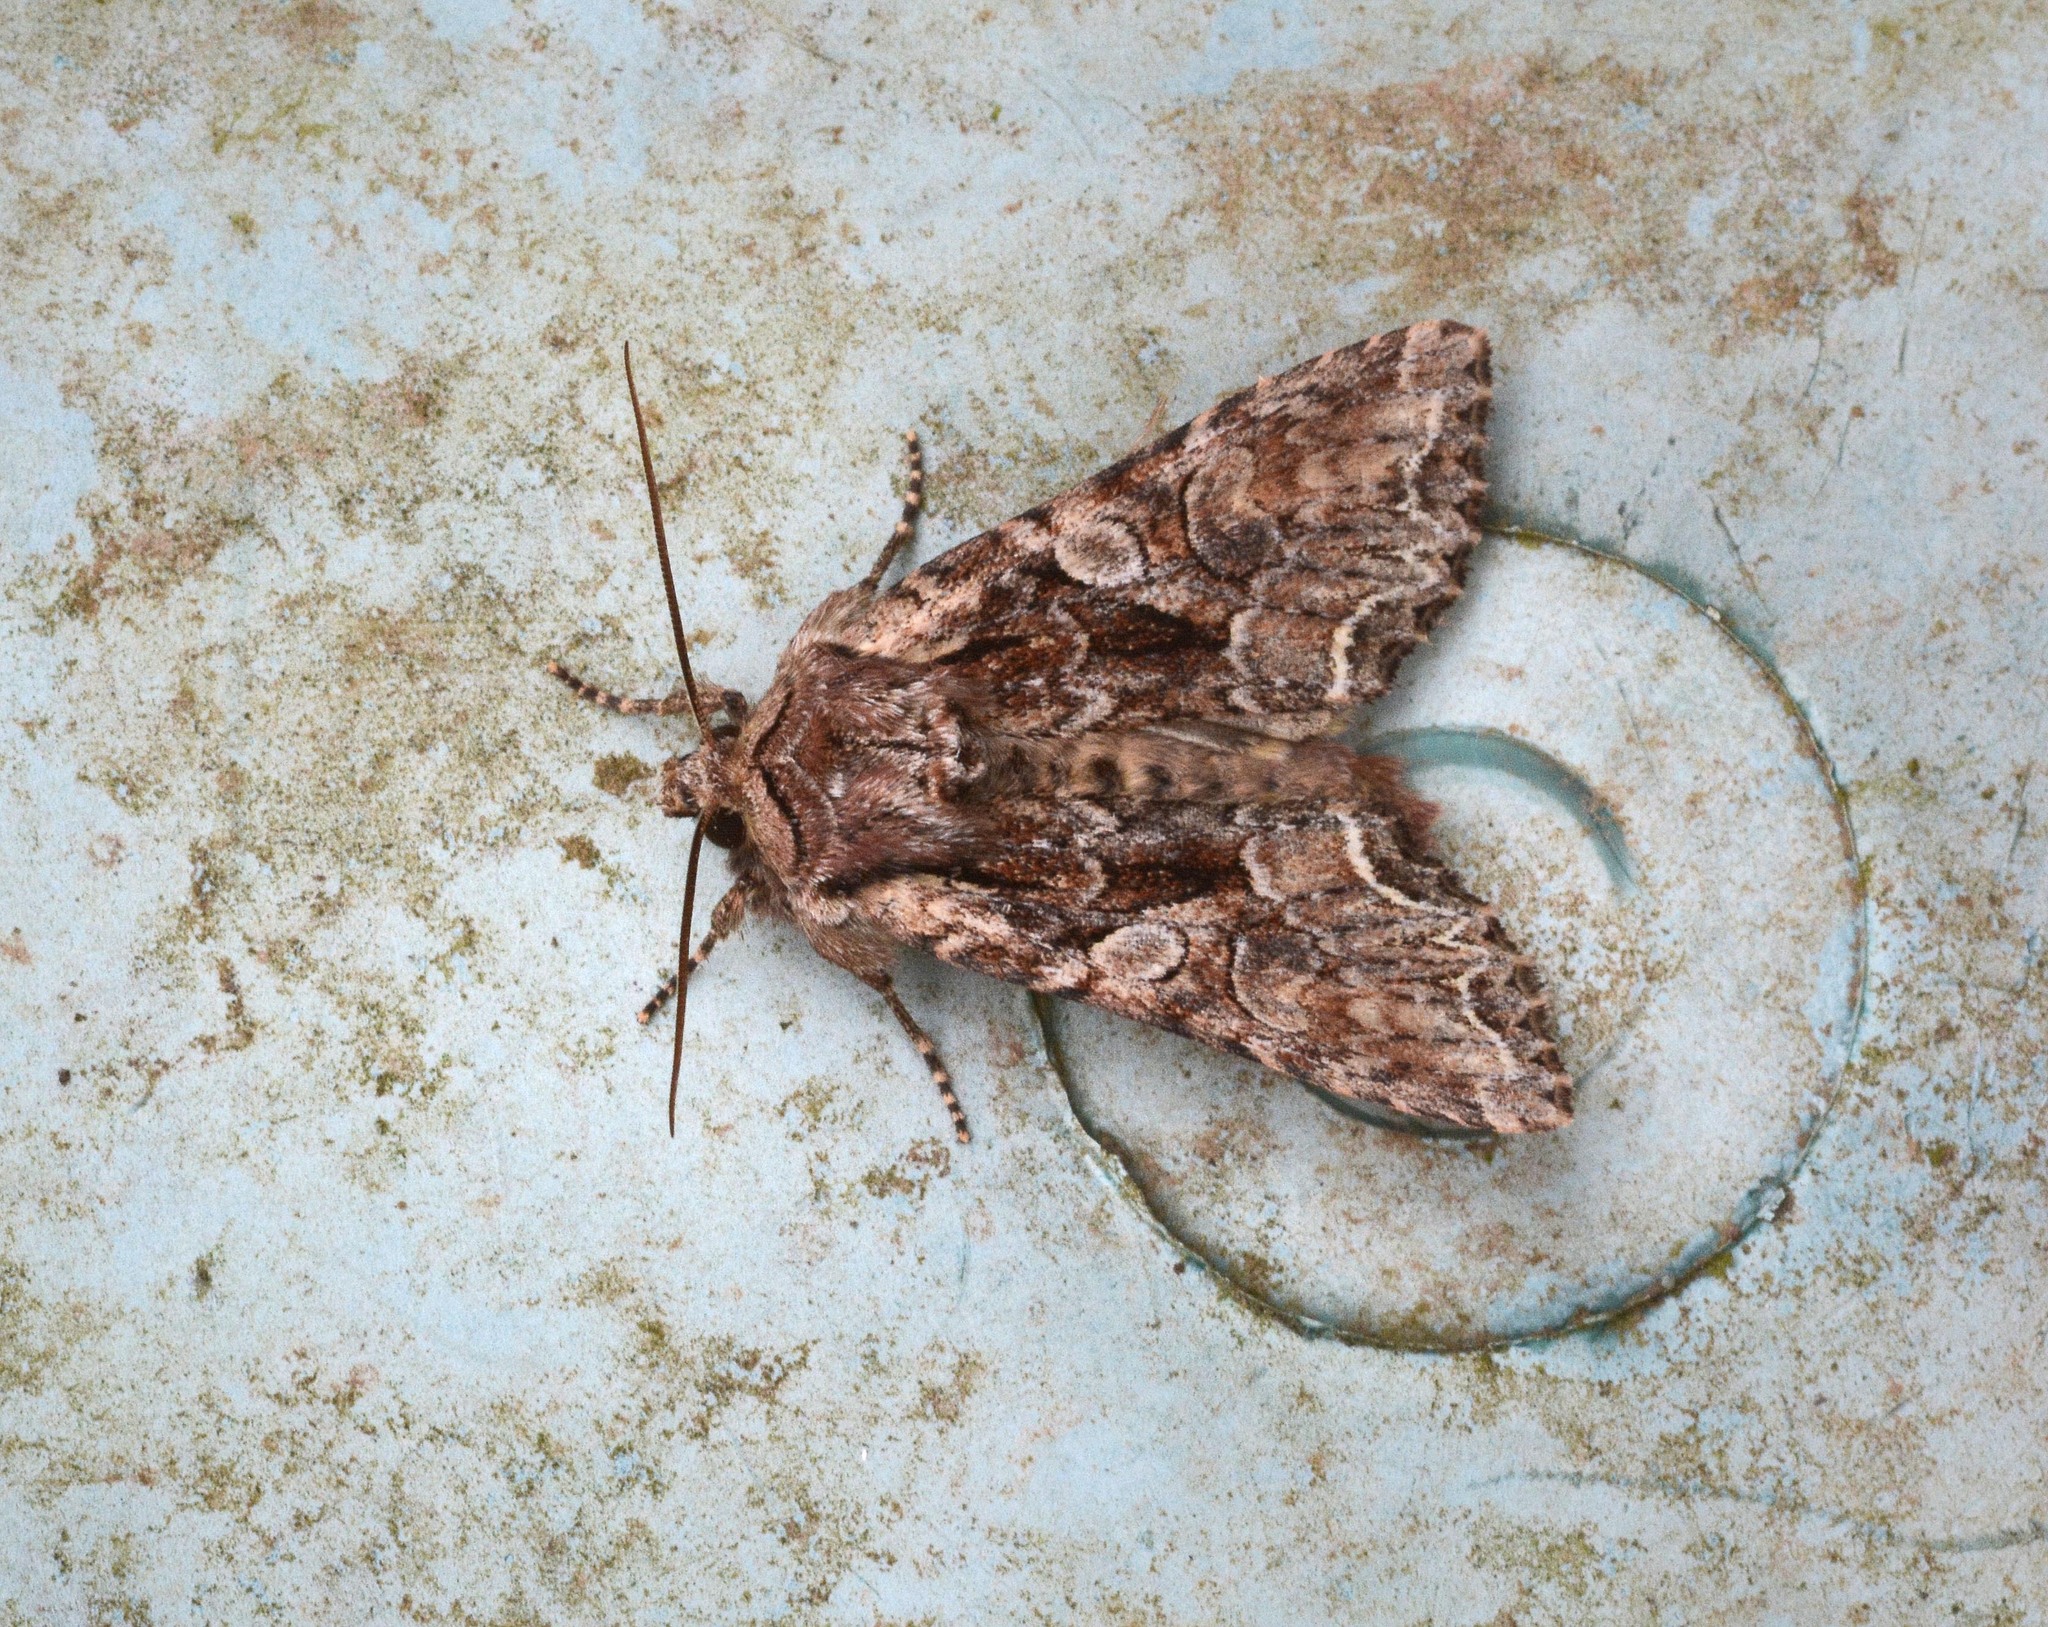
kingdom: Animalia
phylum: Arthropoda
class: Insecta
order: Lepidoptera
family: Noctuidae
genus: Lacanobia
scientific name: Lacanobia thalassina
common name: Pale-shouldered brocade
